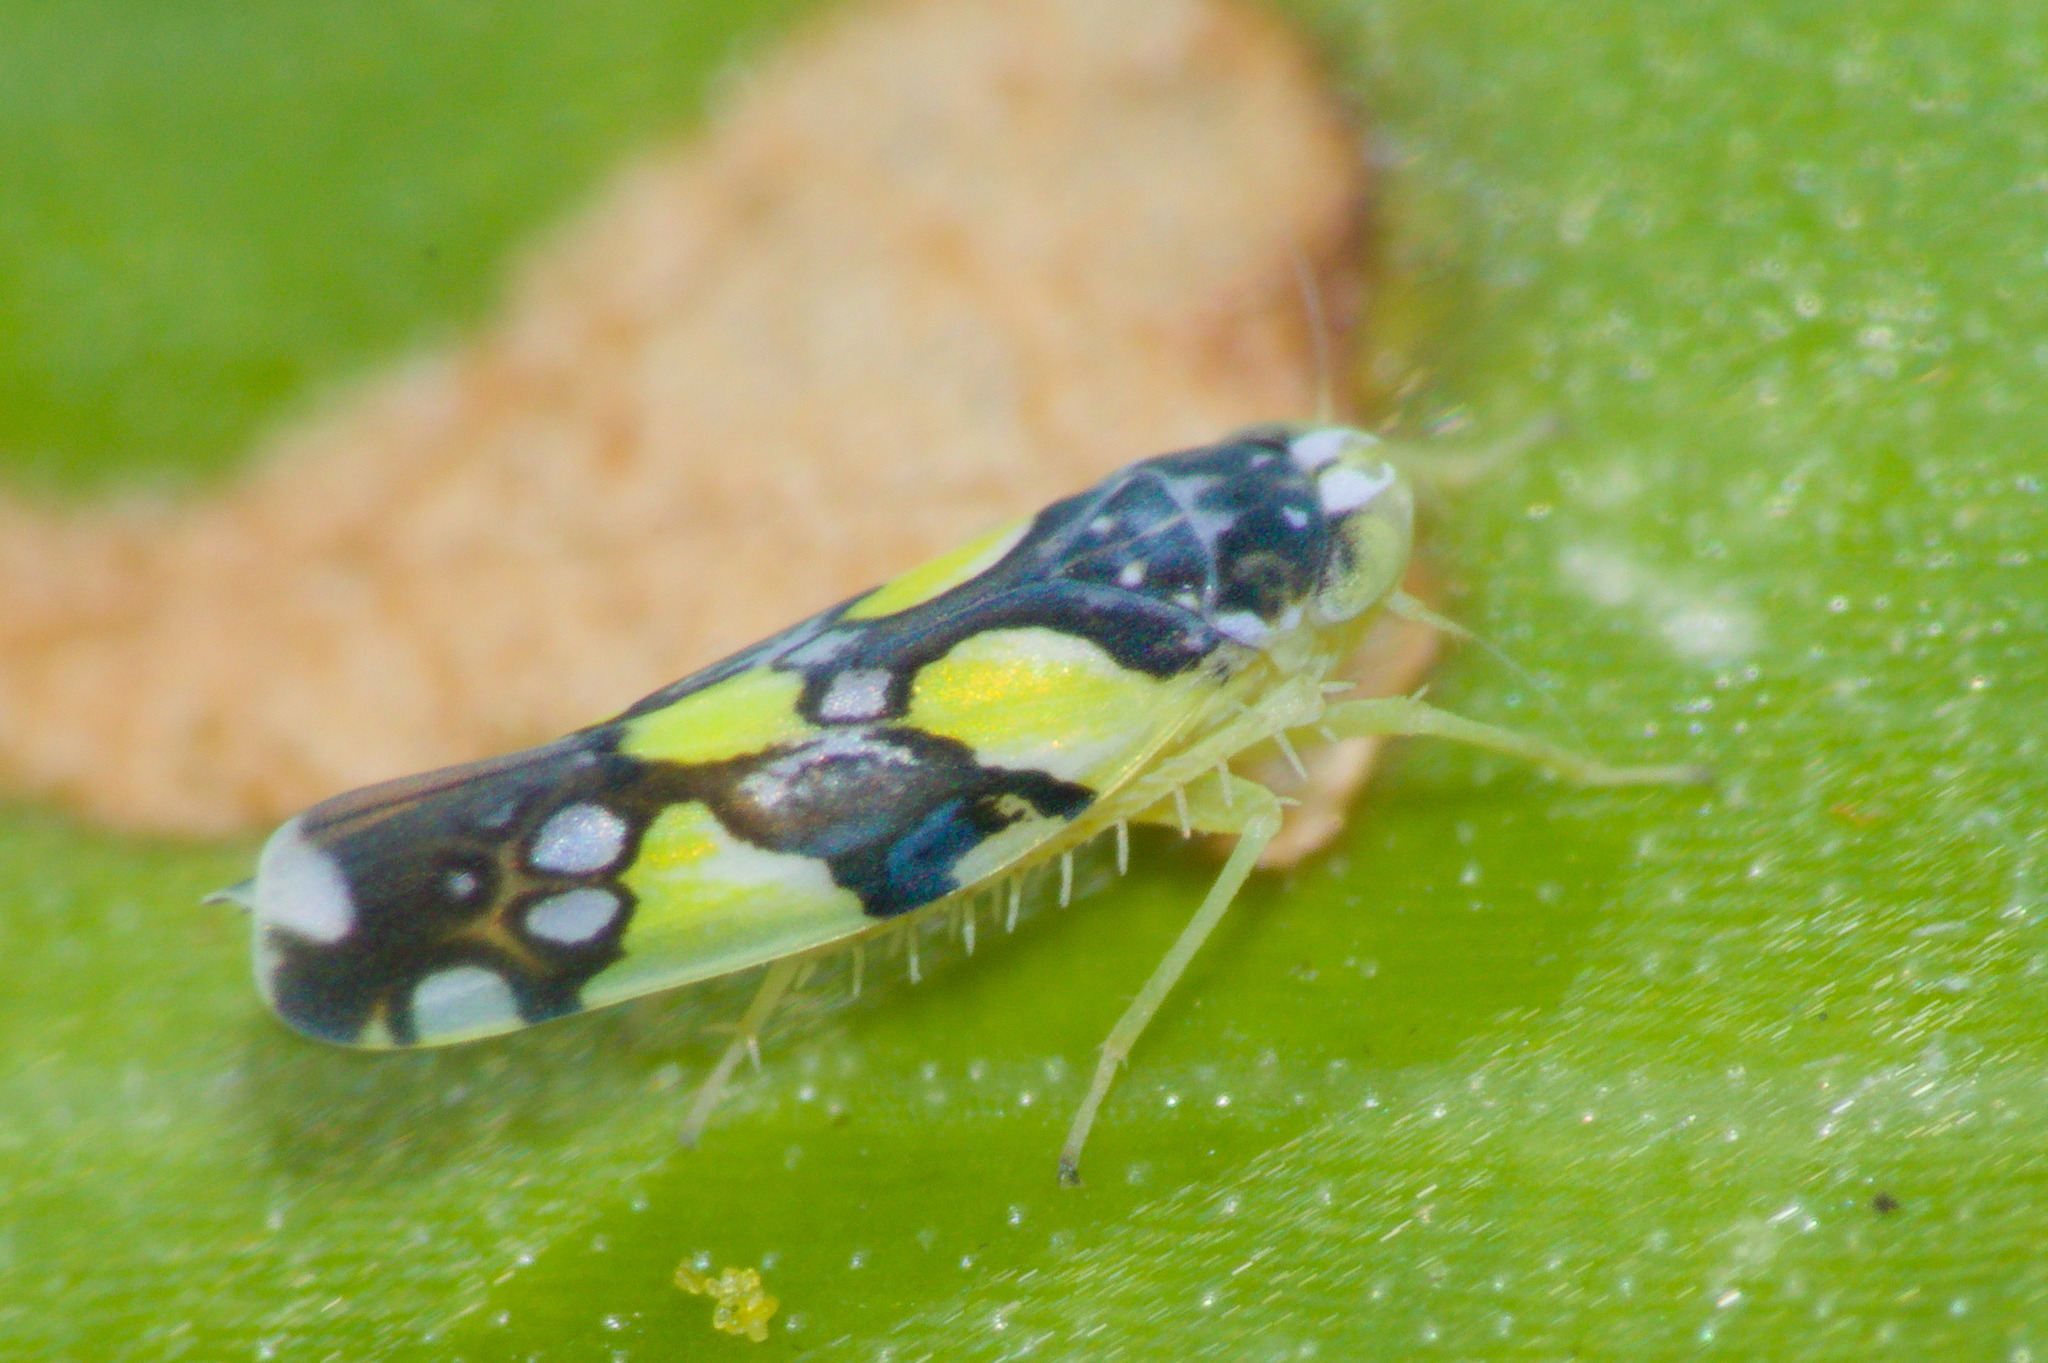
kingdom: Animalia
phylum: Arthropoda
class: Insecta
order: Hemiptera
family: Cicadellidae
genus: Protalebrella
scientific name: Protalebrella brasiliensis
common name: Brasilian leafhopper
